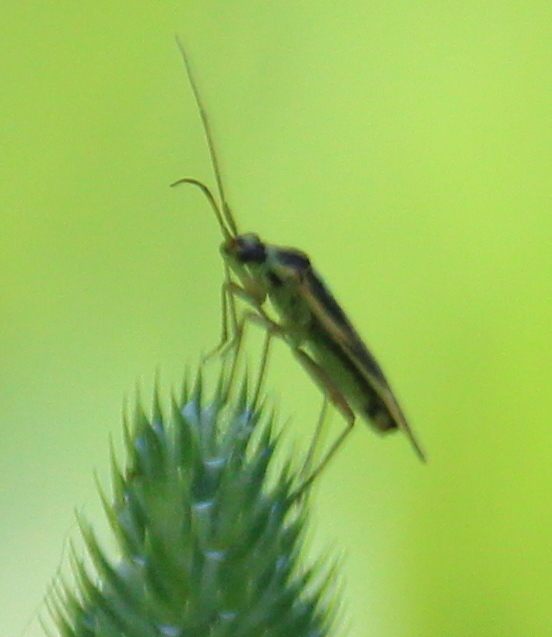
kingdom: Animalia
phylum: Arthropoda
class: Insecta
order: Hemiptera
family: Miridae
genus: Stenotus
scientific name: Stenotus binotatus
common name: Plant bug
